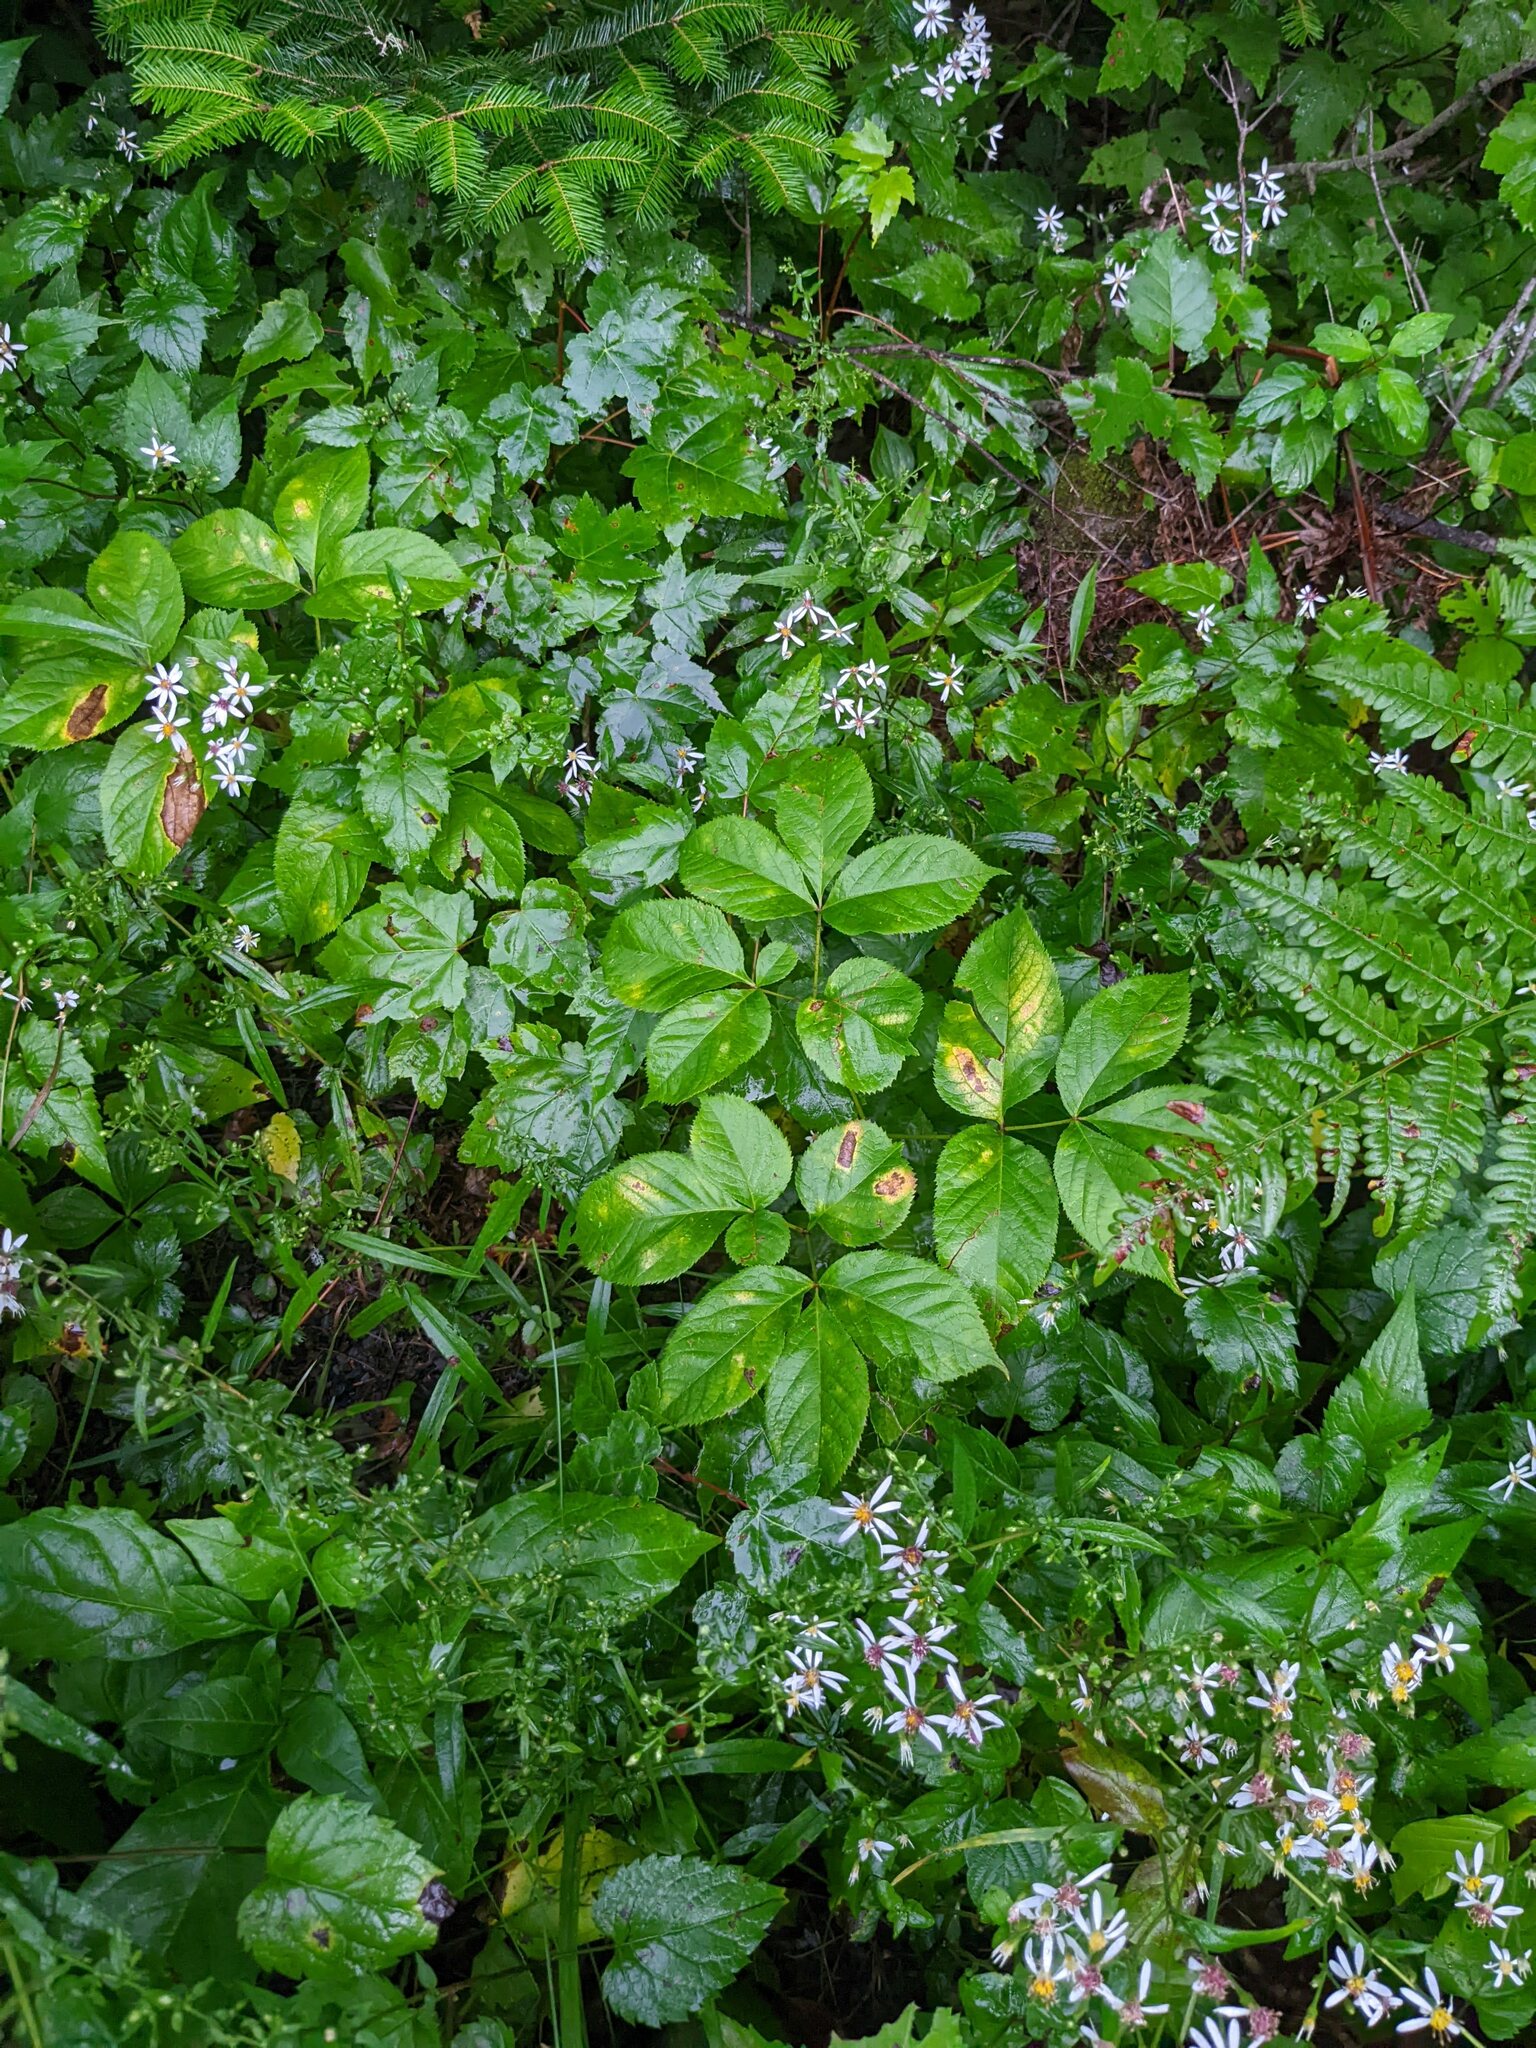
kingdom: Plantae
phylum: Tracheophyta
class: Magnoliopsida
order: Apiales
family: Araliaceae
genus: Aralia
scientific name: Aralia nudicaulis
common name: Wild sarsaparilla
